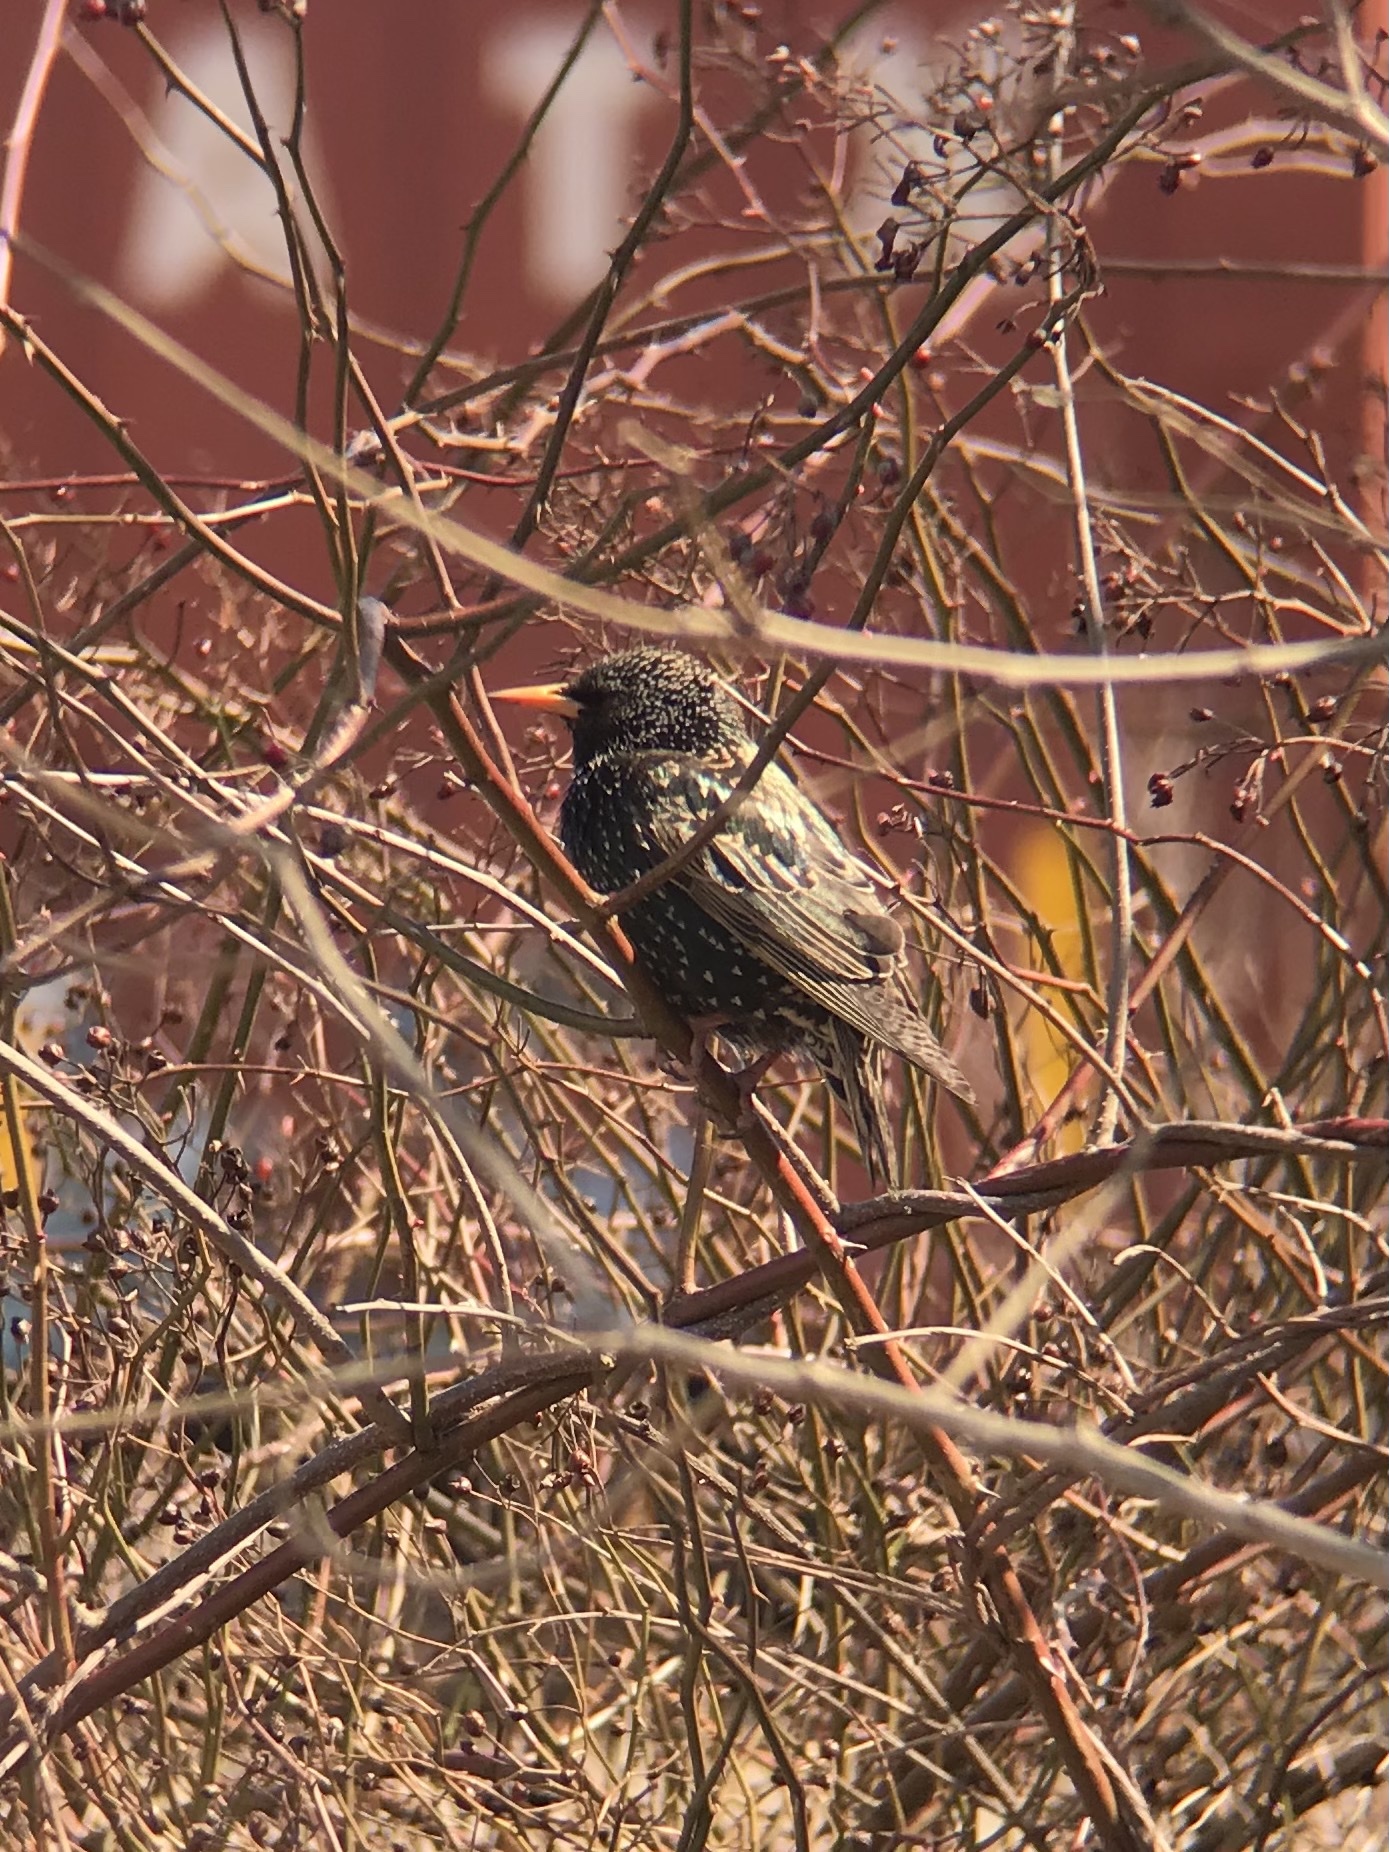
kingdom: Animalia
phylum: Chordata
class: Aves
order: Passeriformes
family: Sturnidae
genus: Sturnus
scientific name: Sturnus vulgaris
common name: Common starling
